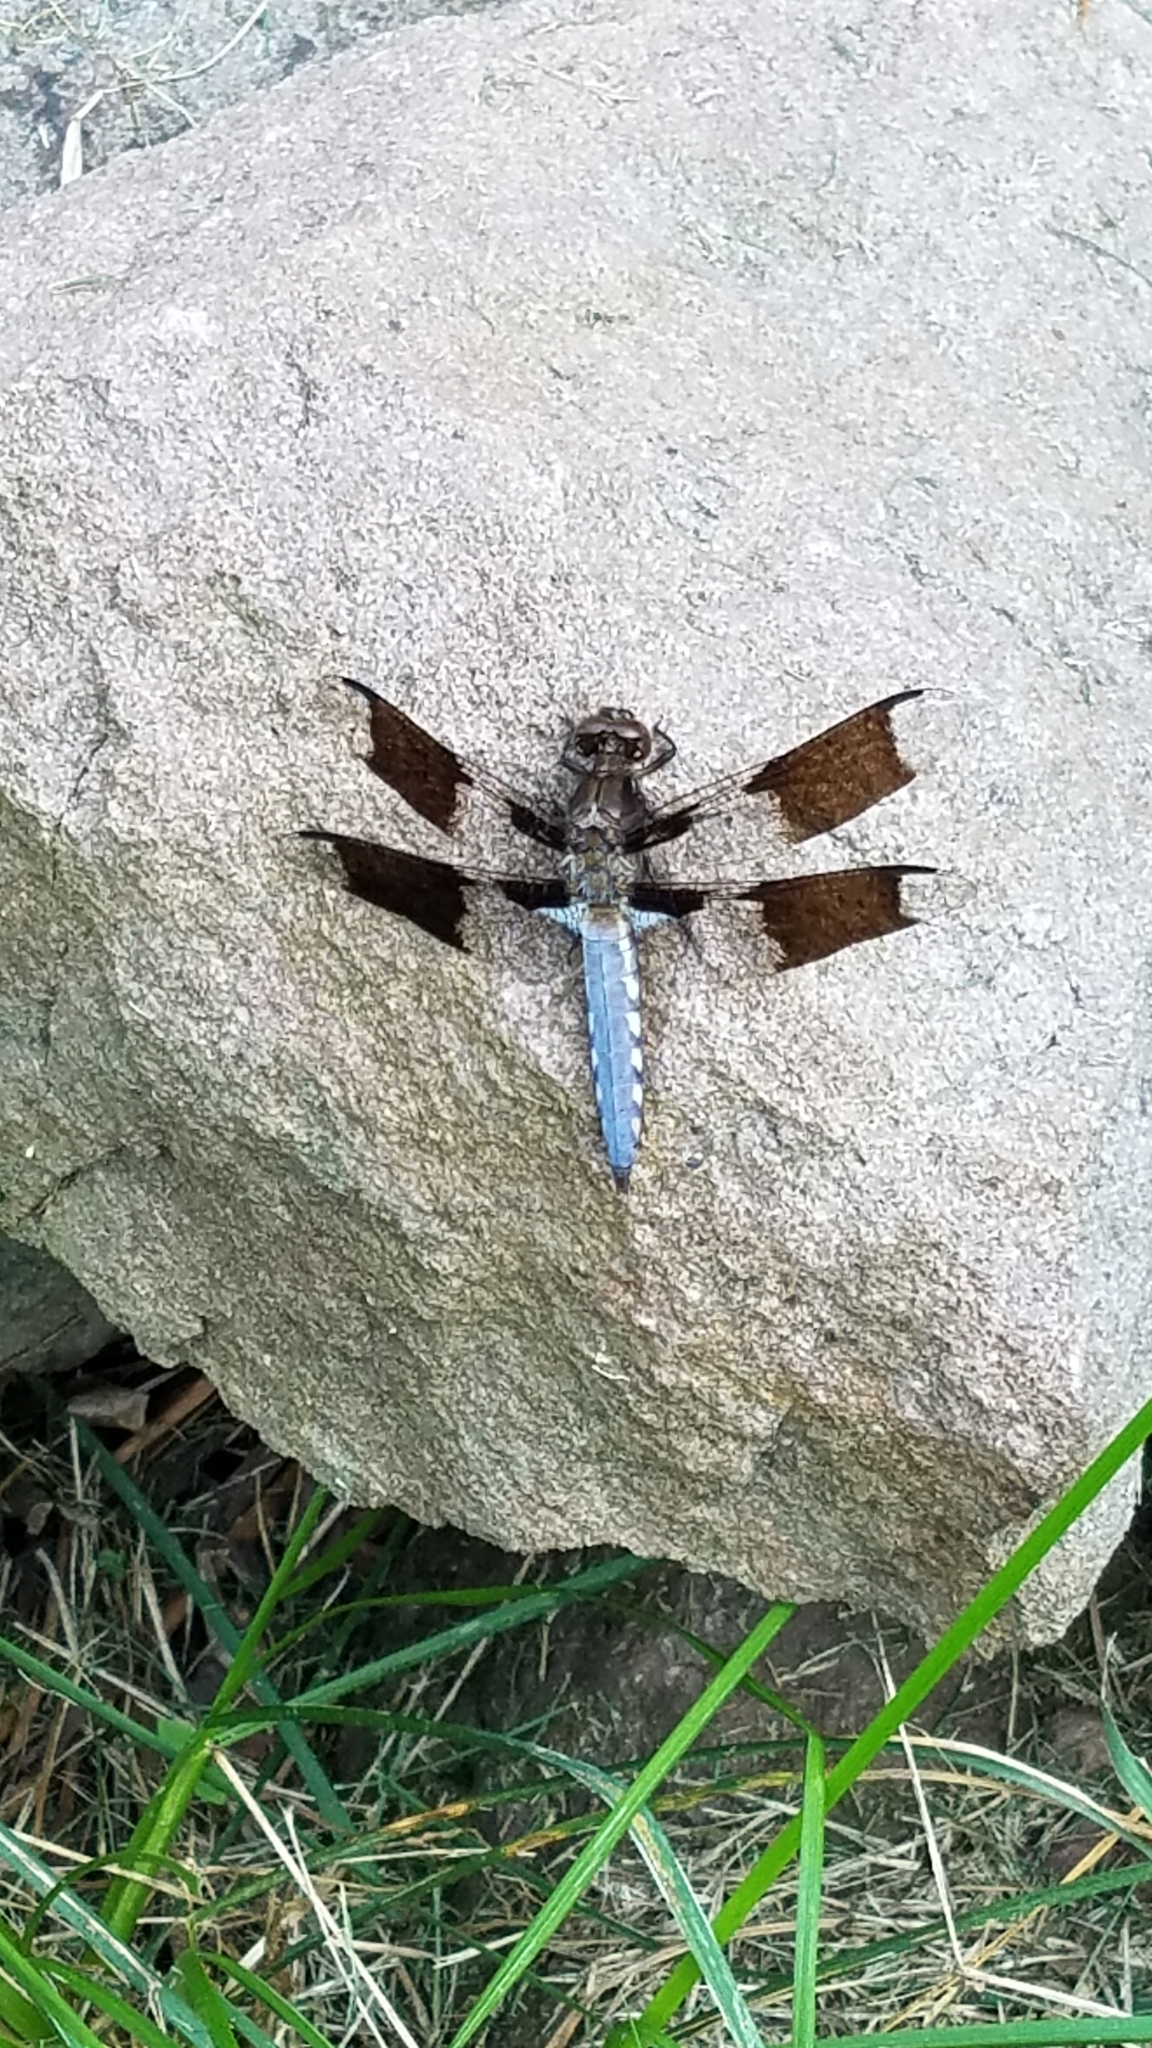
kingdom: Animalia
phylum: Arthropoda
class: Insecta
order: Odonata
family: Libellulidae
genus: Plathemis
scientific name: Plathemis lydia
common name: Common whitetail
